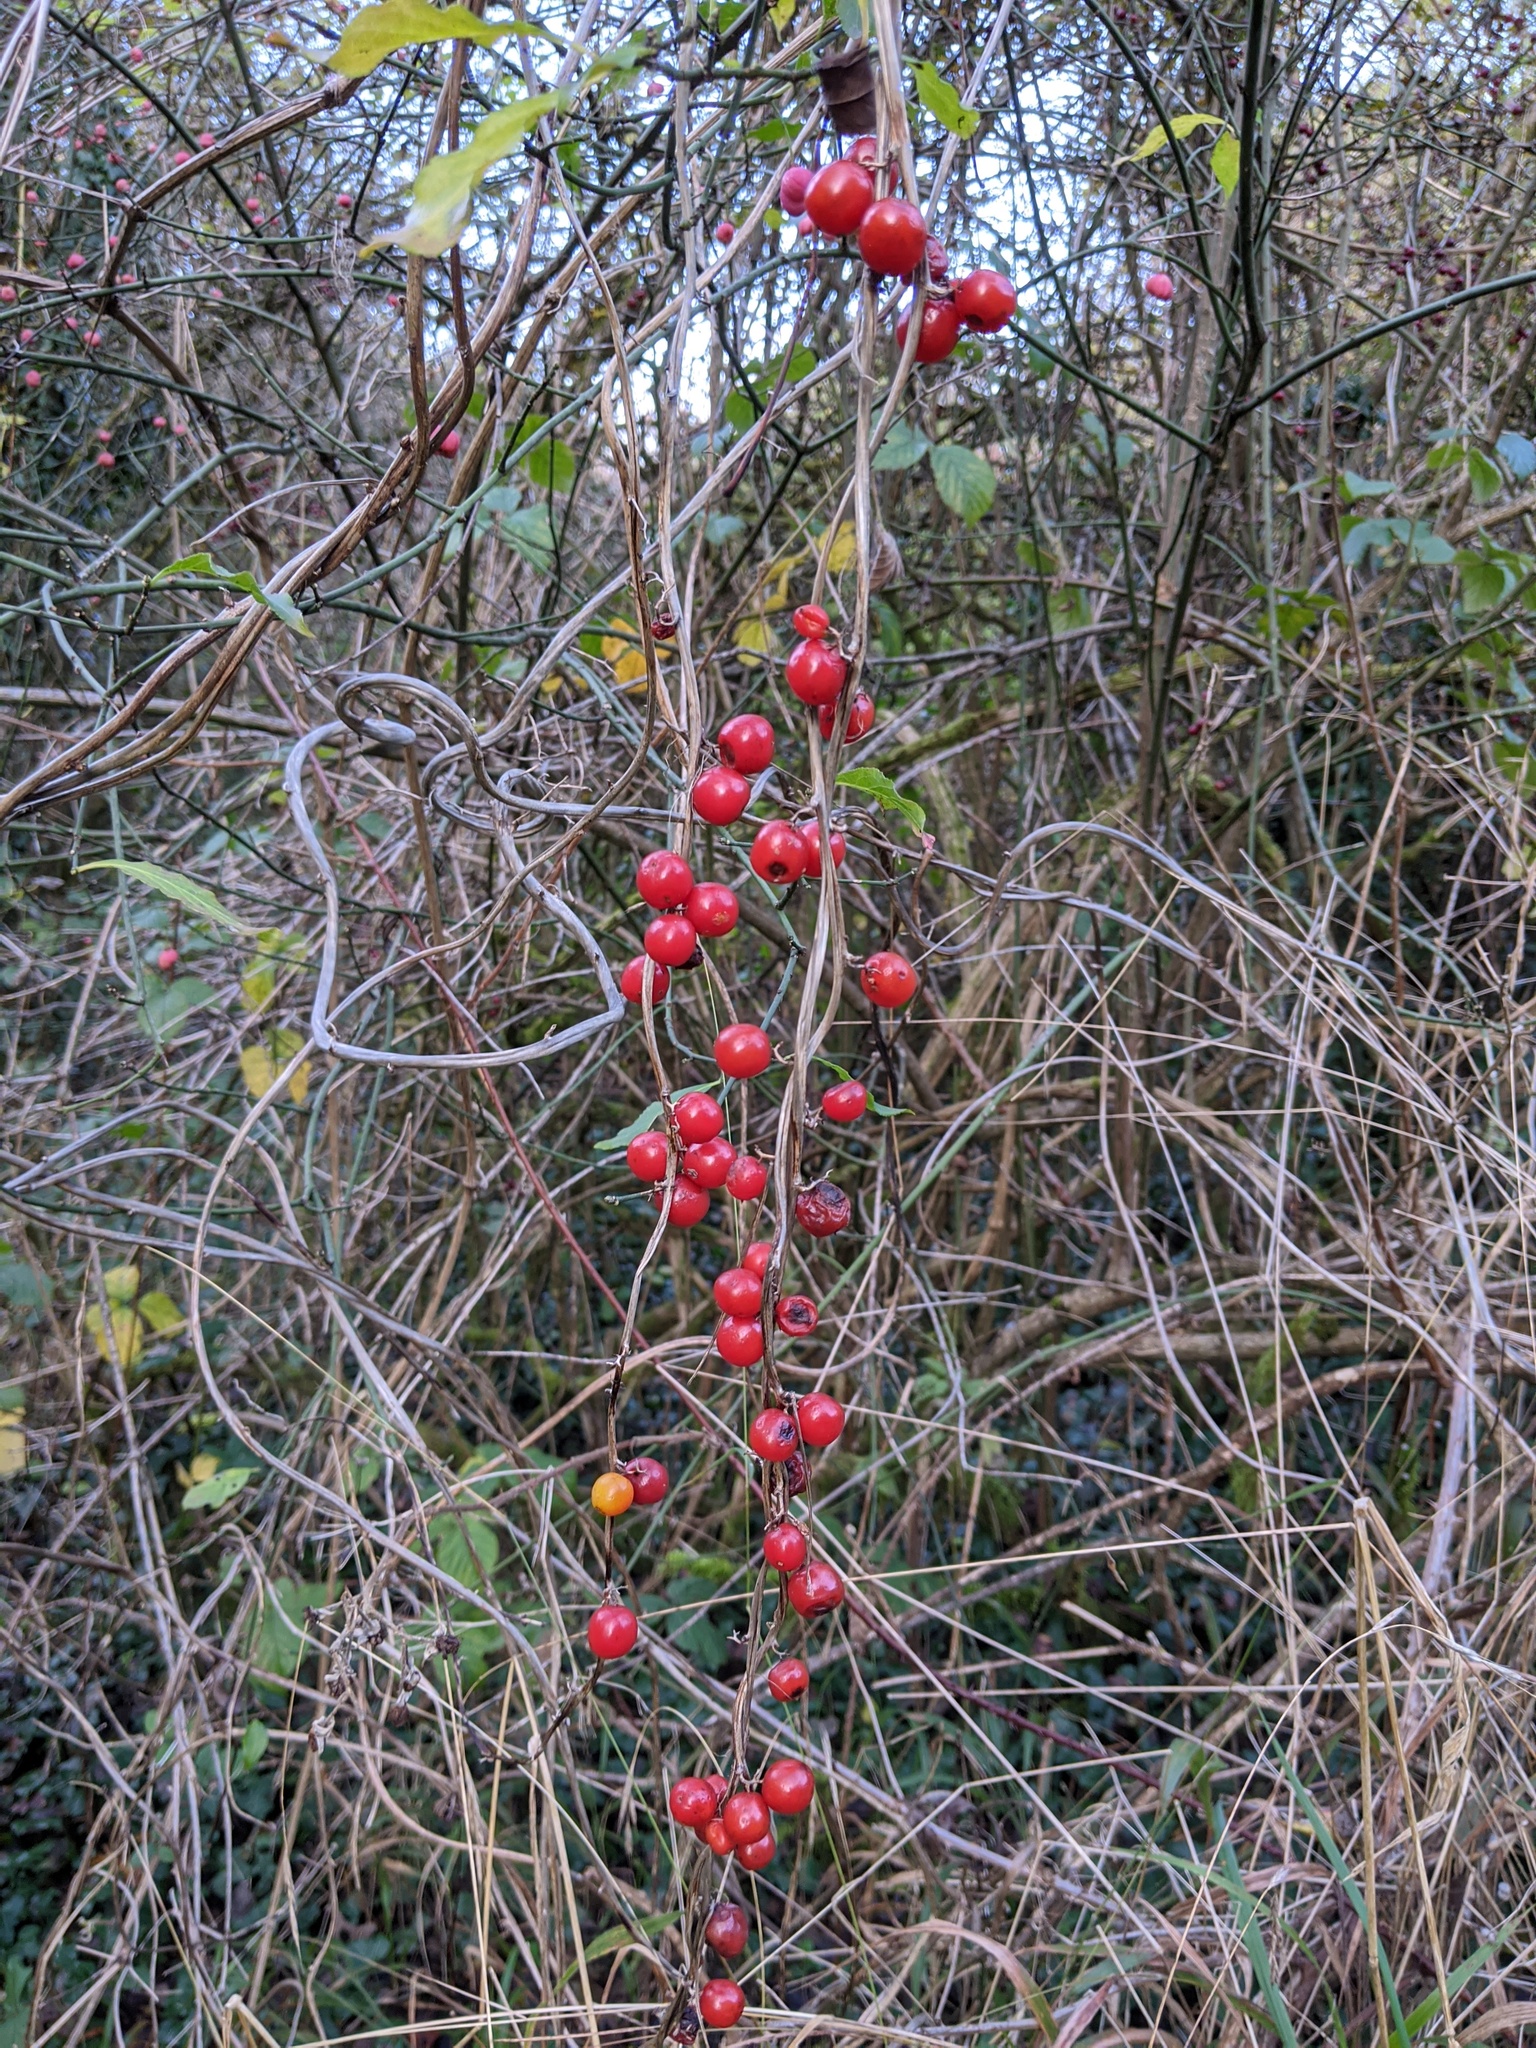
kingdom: Plantae
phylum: Tracheophyta
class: Liliopsida
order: Dioscoreales
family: Dioscoreaceae
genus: Dioscorea
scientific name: Dioscorea communis
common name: Black-bindweed
